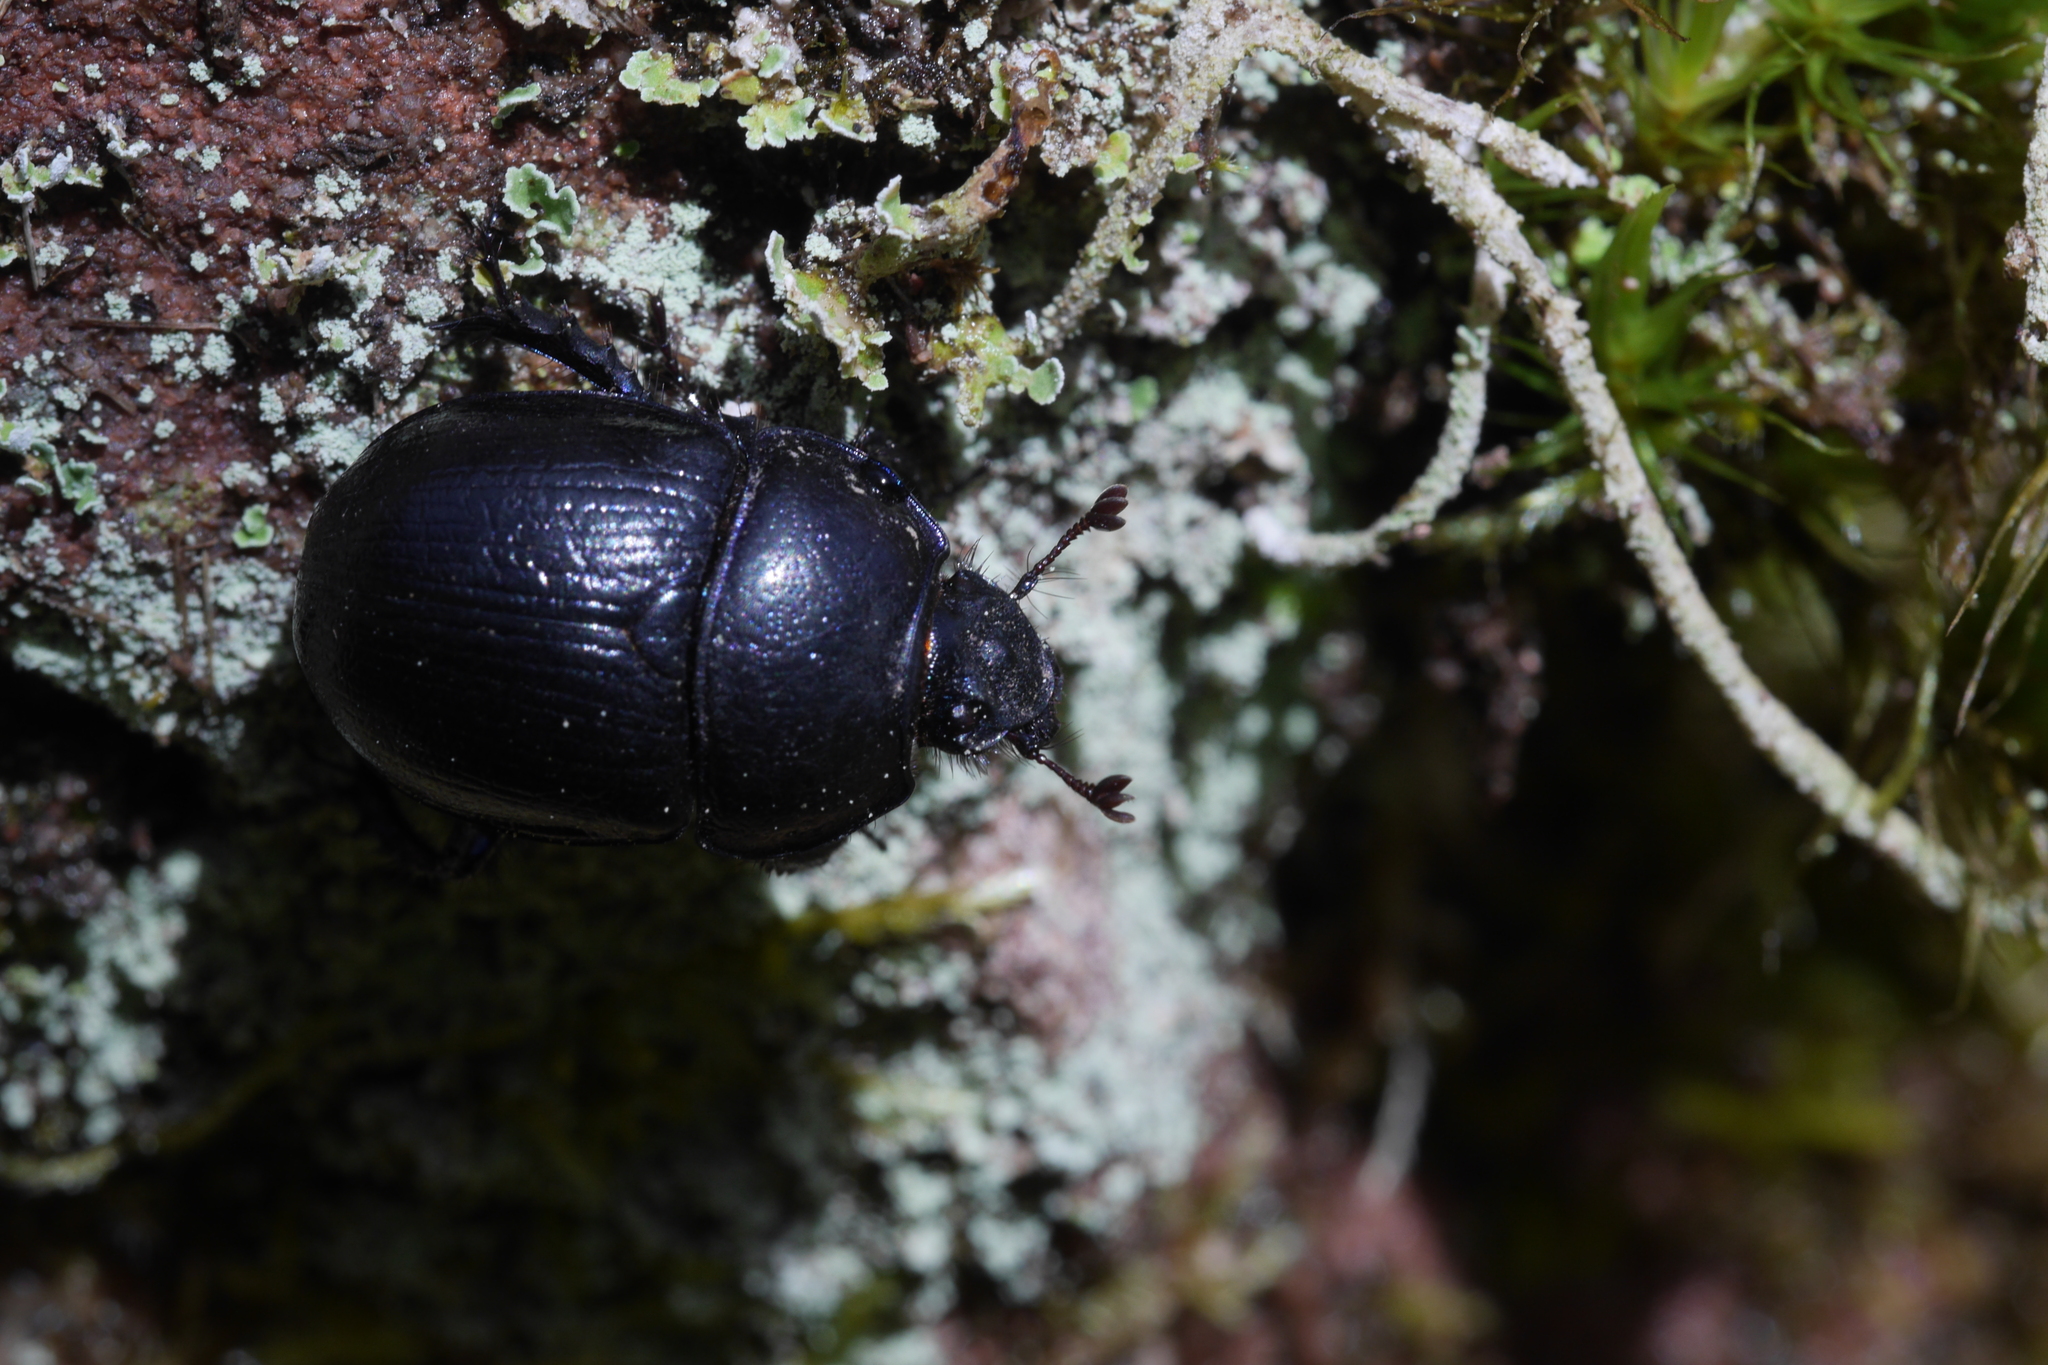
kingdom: Animalia
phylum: Arthropoda
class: Insecta
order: Coleoptera
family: Geotrupidae
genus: Anoplotrupes
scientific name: Anoplotrupes stercorosus
